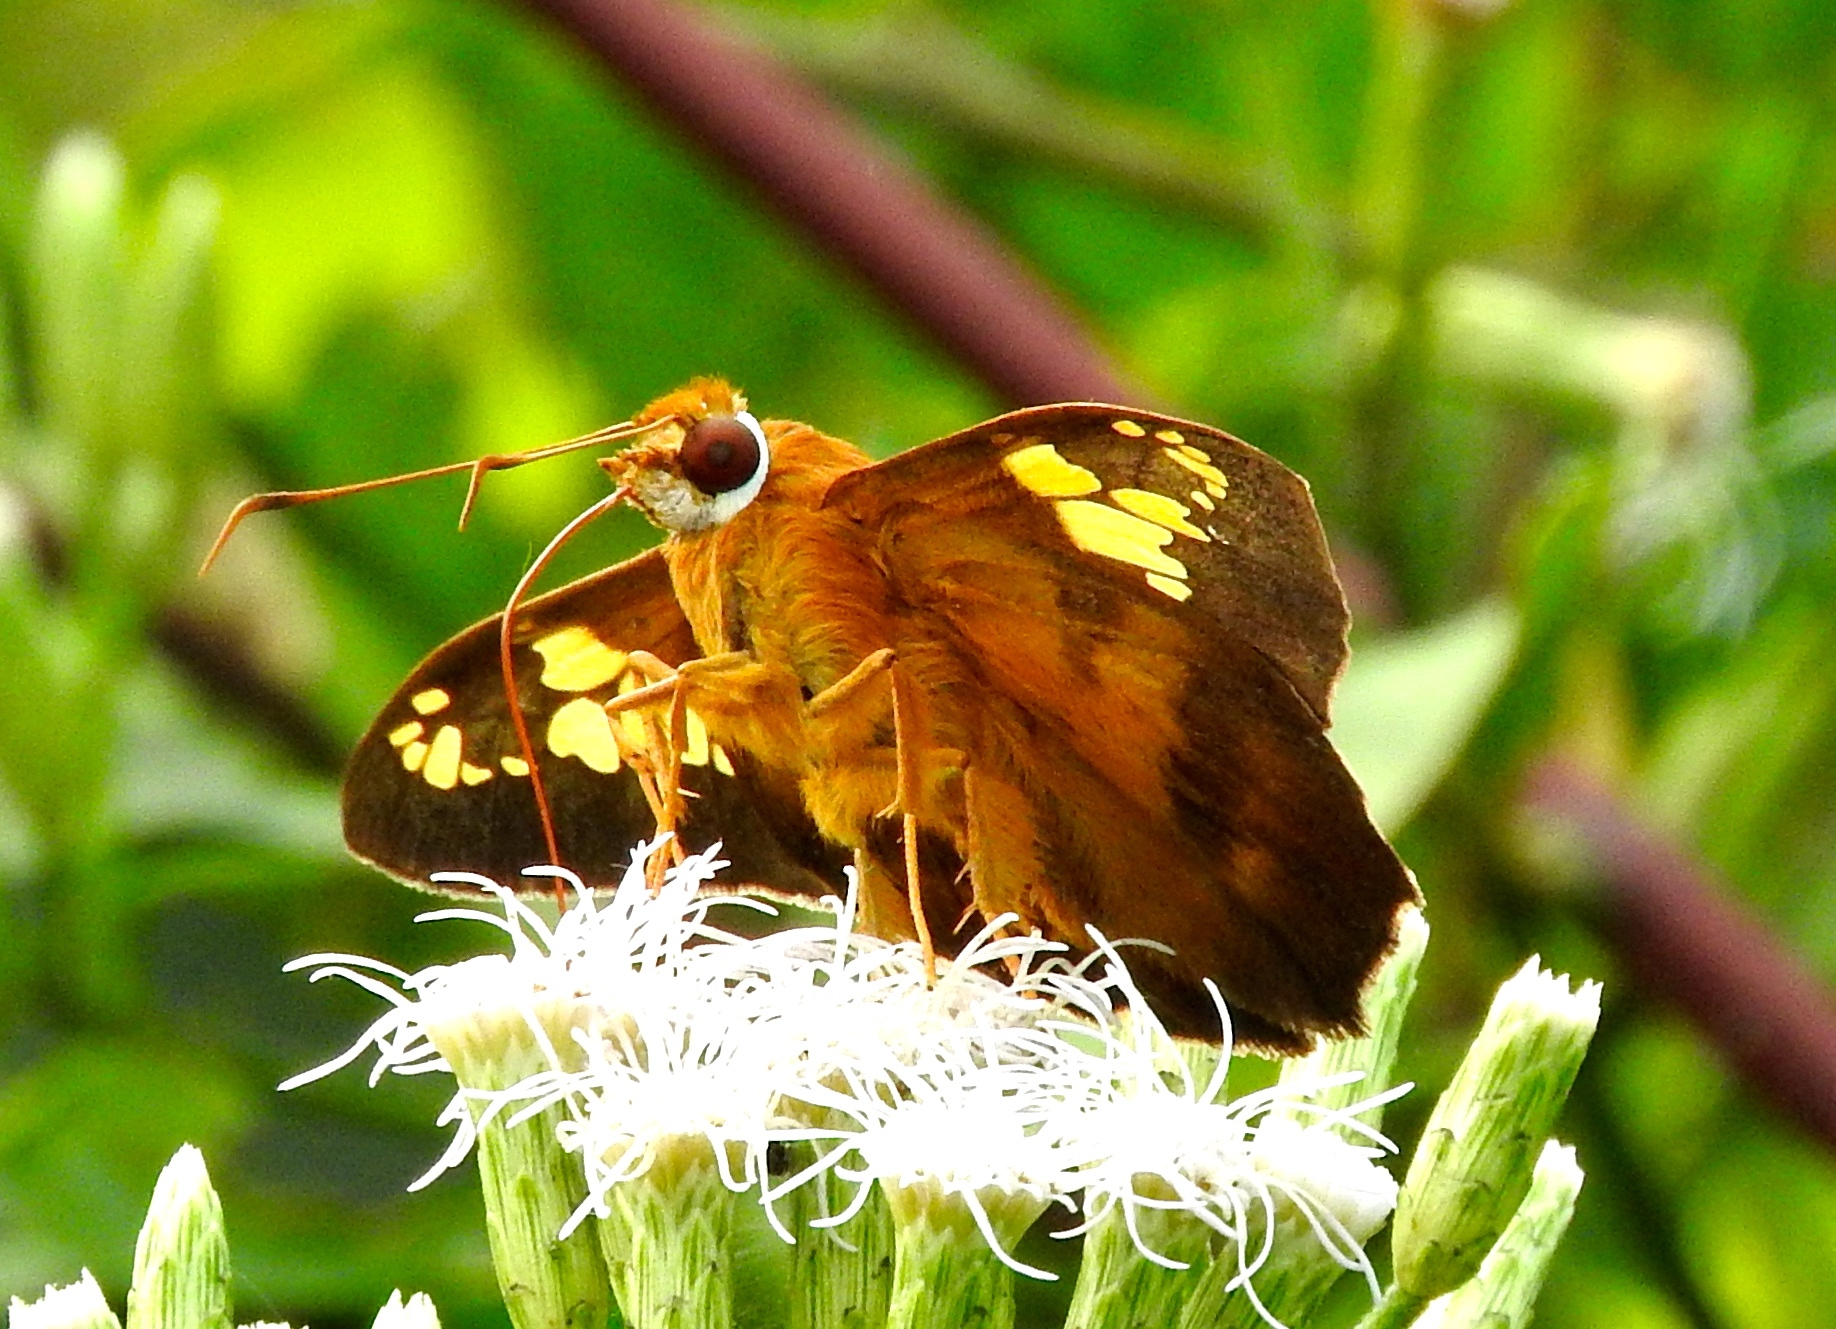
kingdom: Animalia
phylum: Arthropoda
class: Insecta
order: Lepidoptera
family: Hesperiidae
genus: Nascus
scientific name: Nascus phocus
